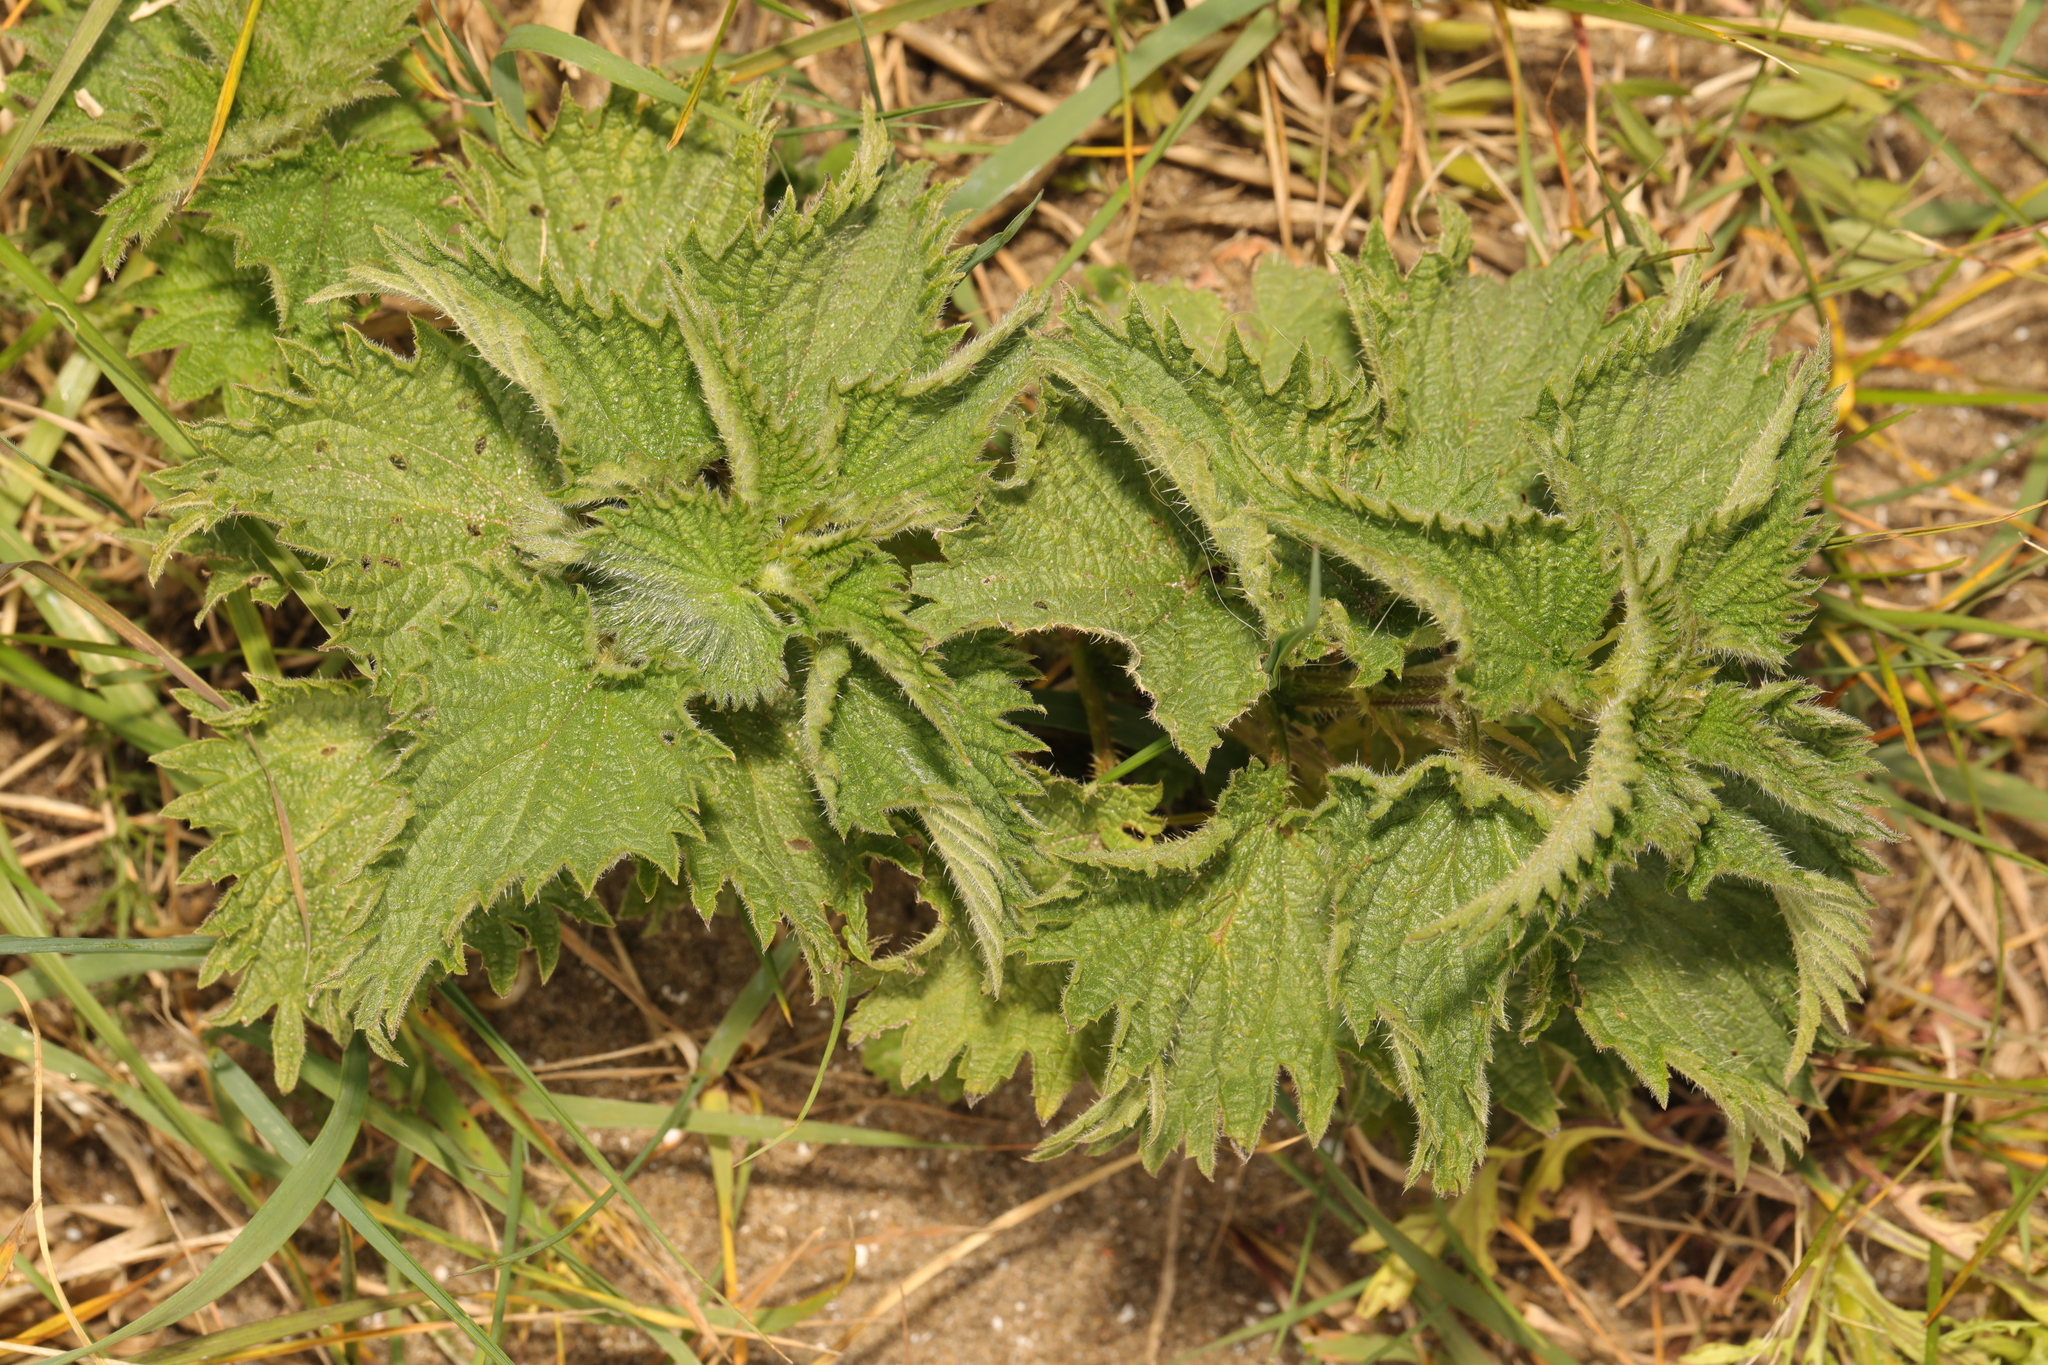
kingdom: Plantae
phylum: Tracheophyta
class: Magnoliopsida
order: Rosales
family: Urticaceae
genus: Urtica
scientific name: Urtica dioica
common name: Common nettle
